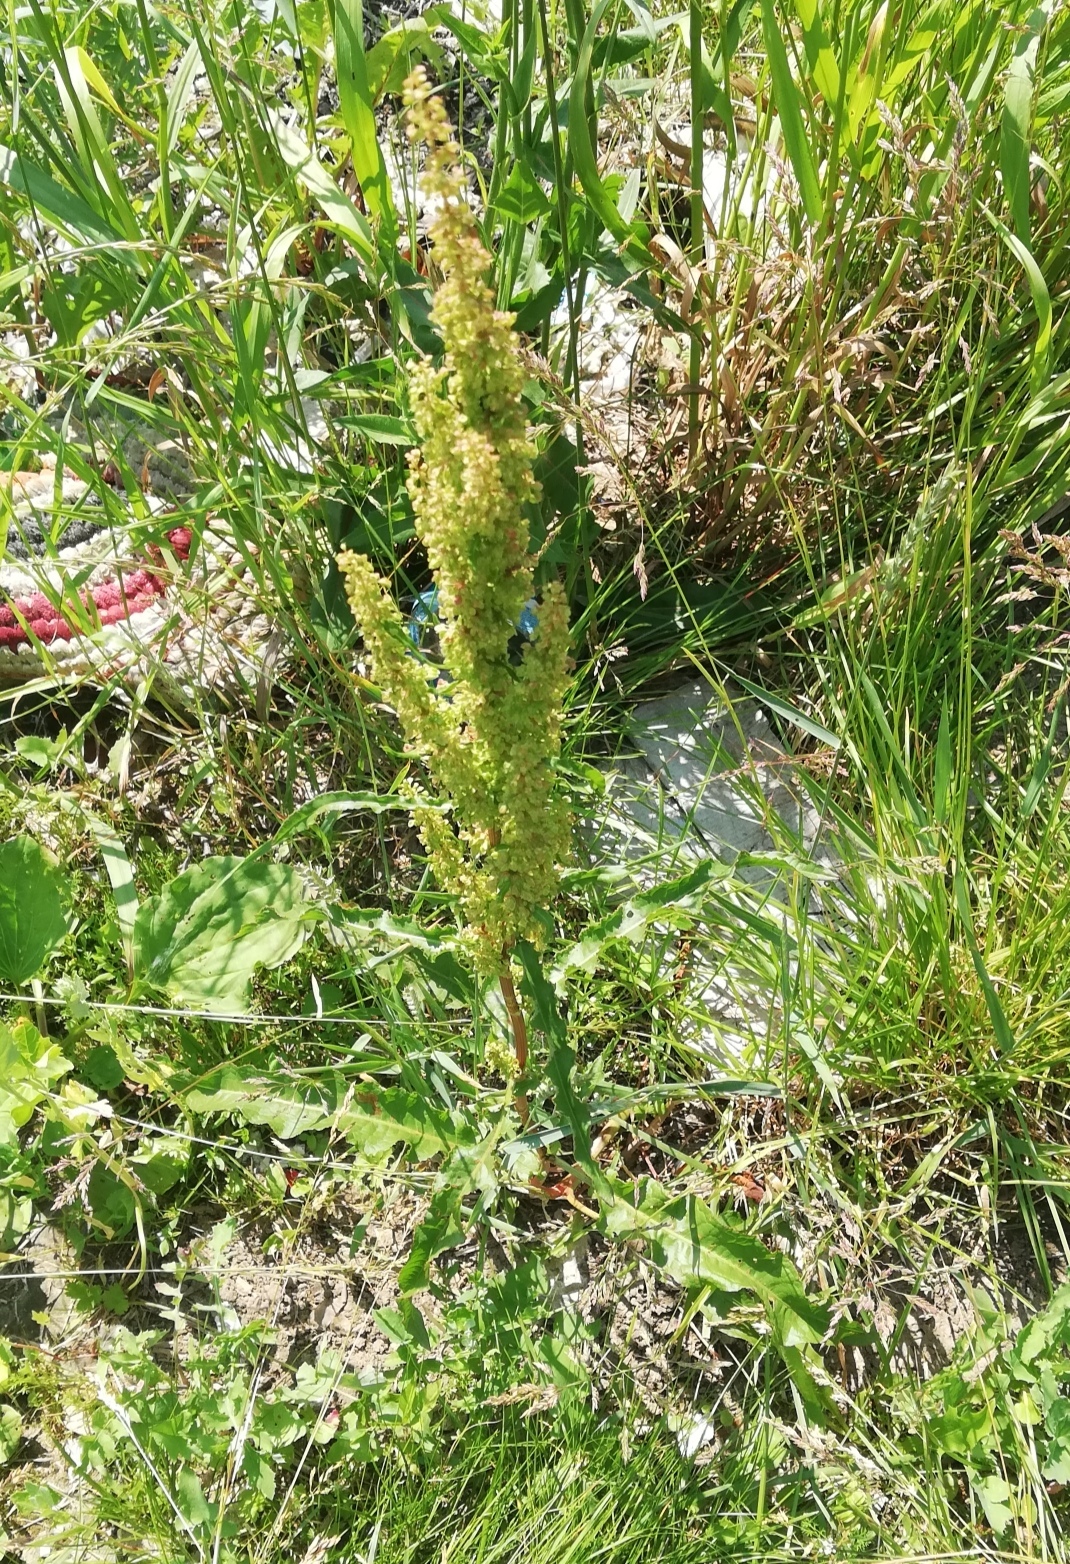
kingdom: Plantae
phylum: Tracheophyta
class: Magnoliopsida
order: Caryophyllales
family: Polygonaceae
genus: Rumex
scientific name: Rumex crispus
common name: Curled dock
